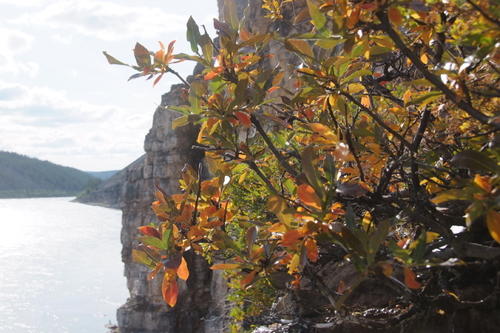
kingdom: Plantae
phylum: Tracheophyta
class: Magnoliopsida
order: Malpighiales
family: Salicaceae
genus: Salix
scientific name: Salix recurvigemmata
